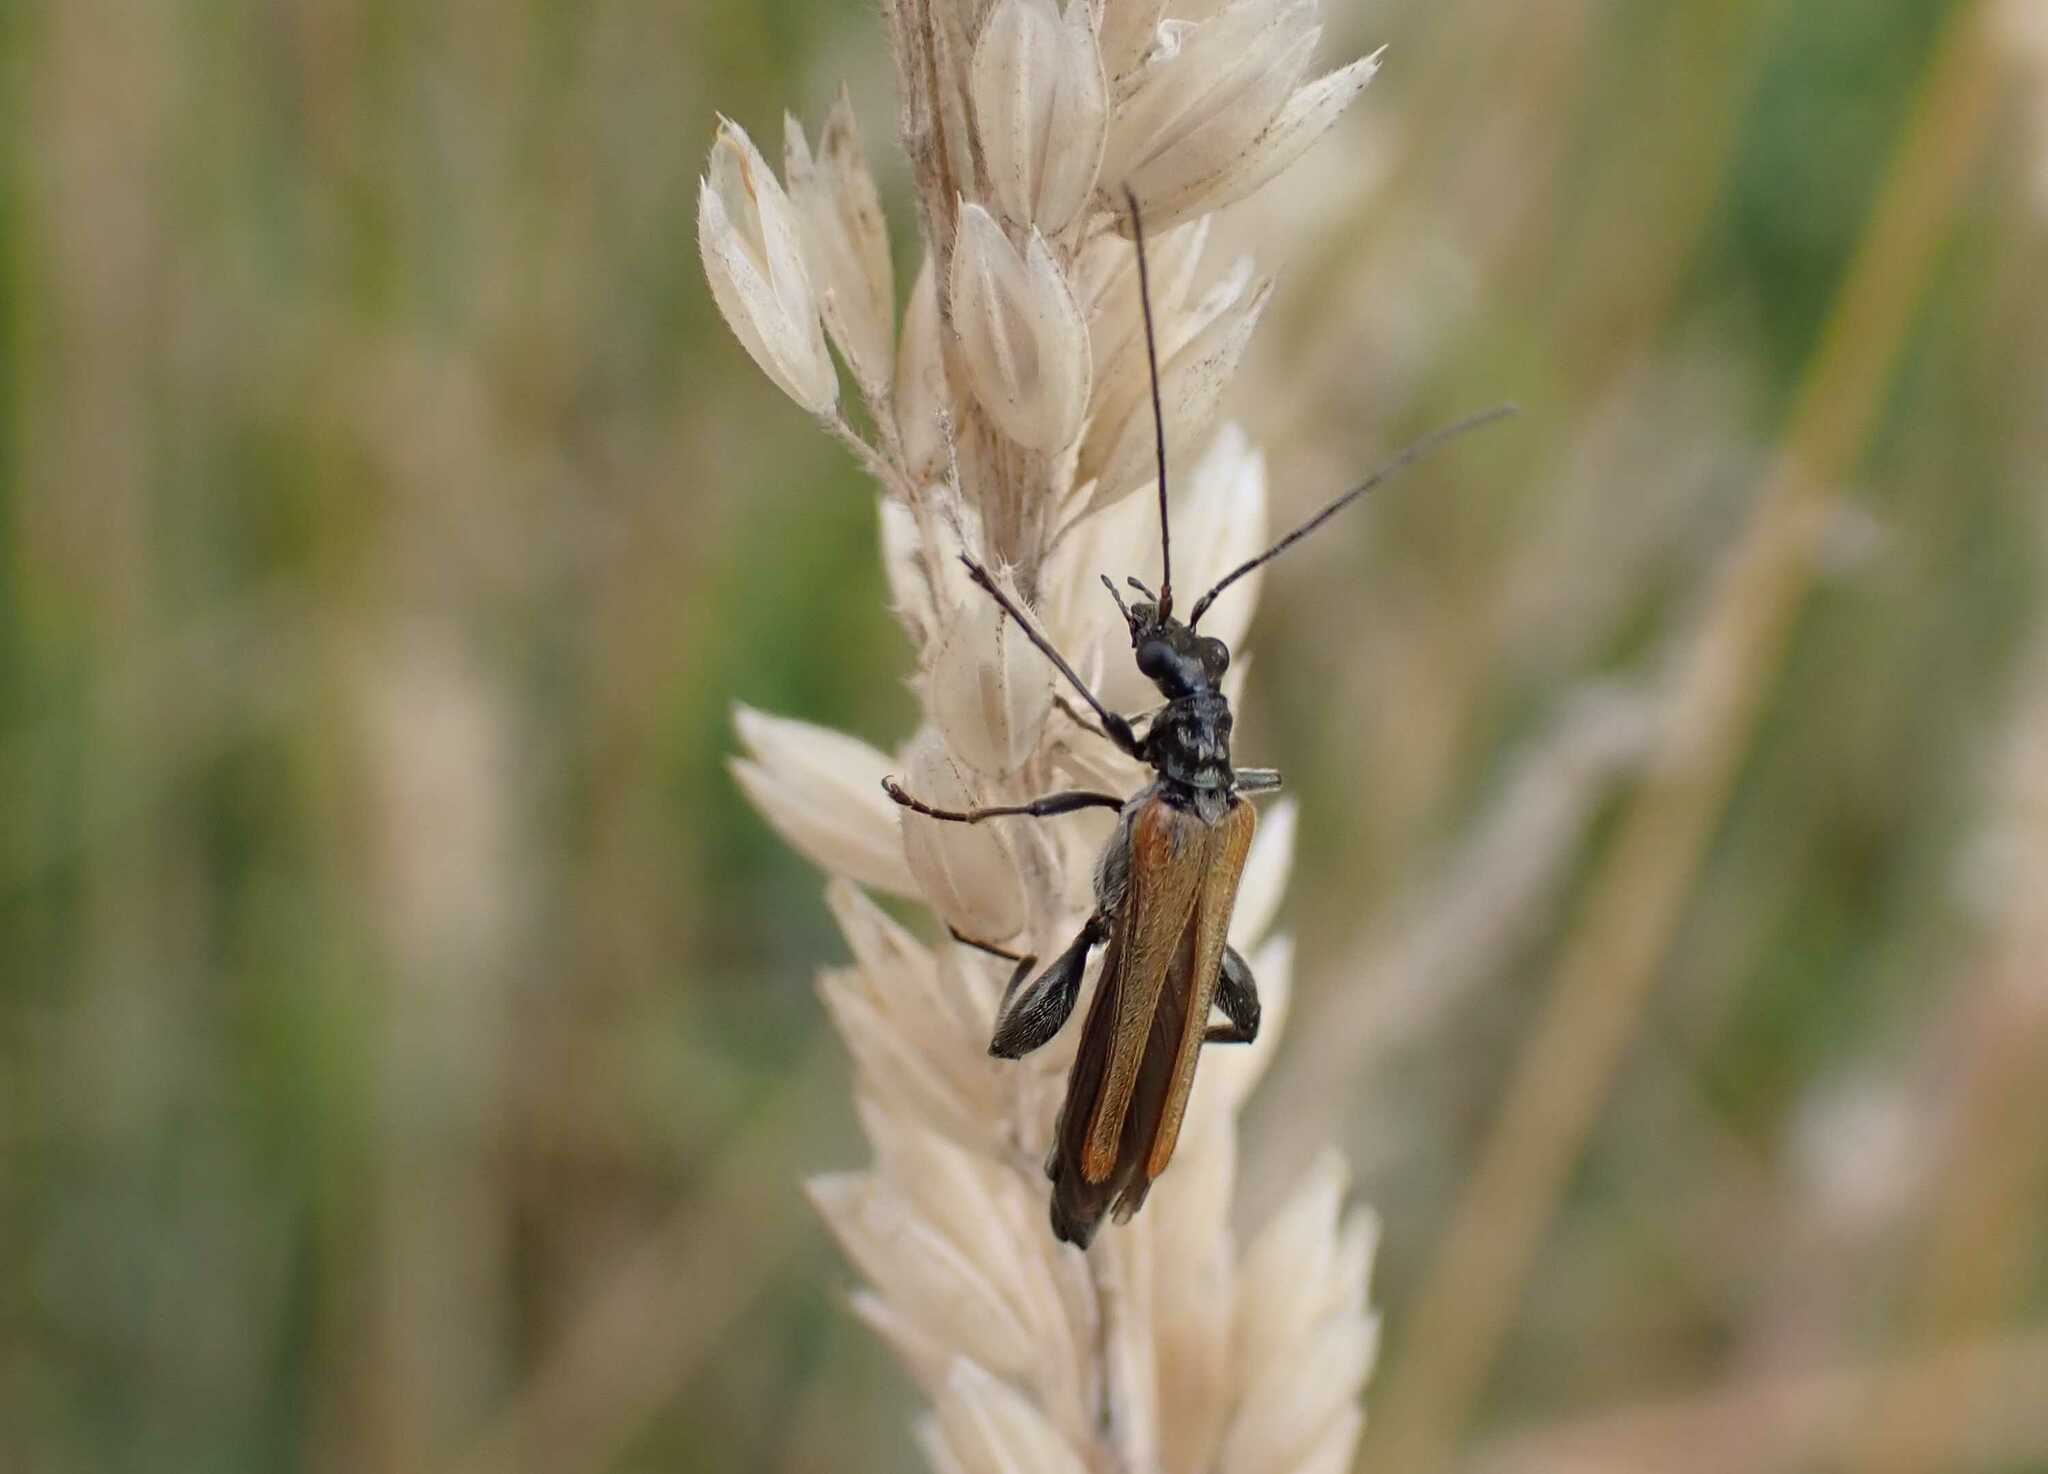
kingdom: Animalia
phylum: Arthropoda
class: Insecta
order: Coleoptera
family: Oedemeridae
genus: Oedemera
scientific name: Oedemera femorata
